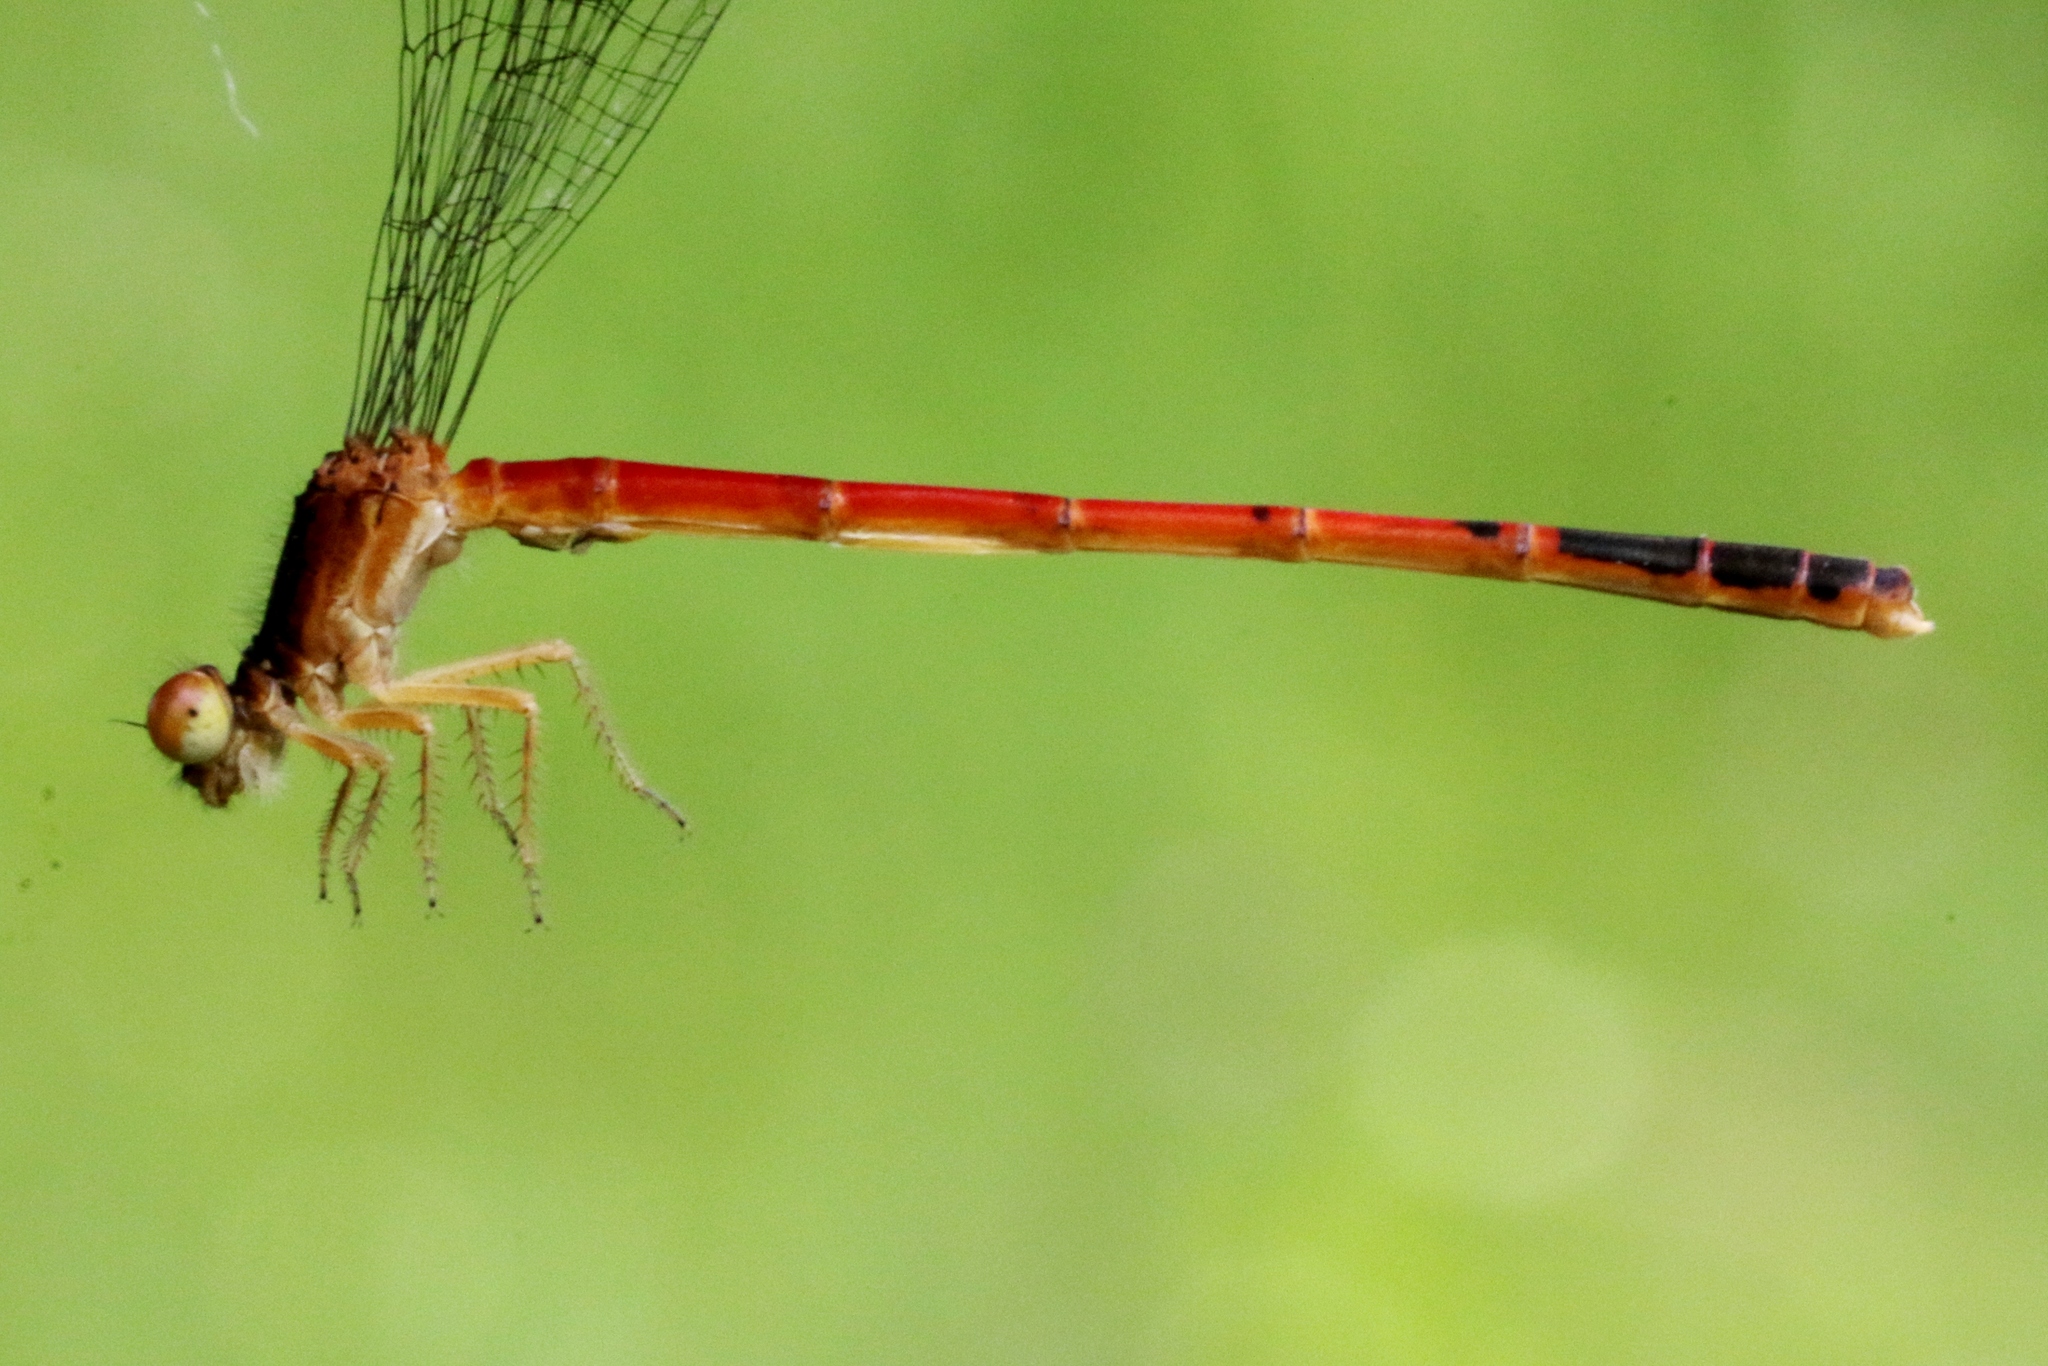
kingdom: Animalia
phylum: Arthropoda
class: Insecta
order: Odonata
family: Coenagrionidae
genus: Amphiagrion
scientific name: Amphiagrion saucium
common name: Eastern red damsel
